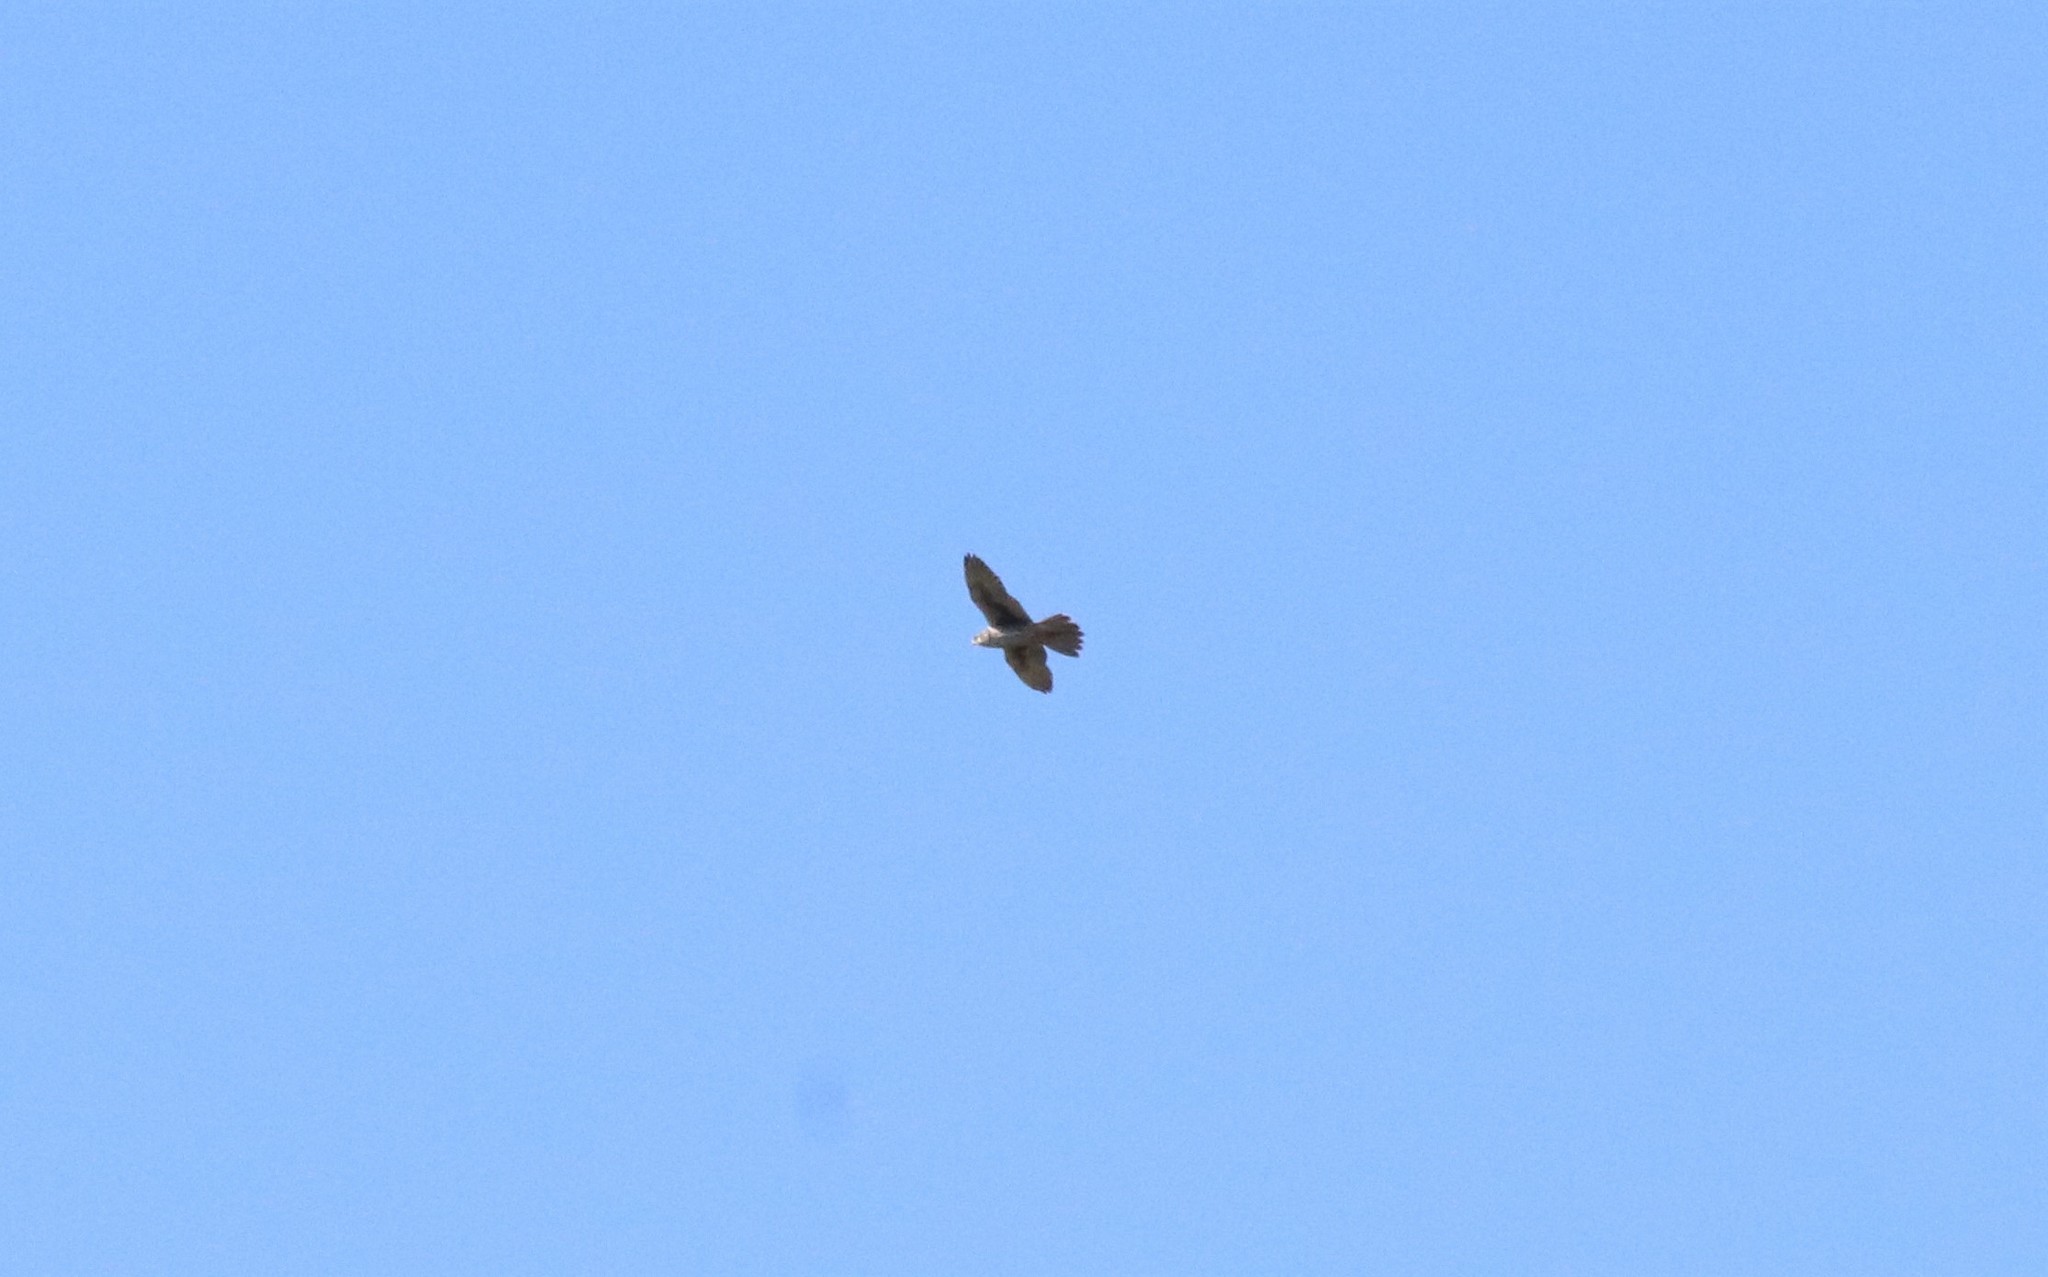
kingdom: Animalia
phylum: Chordata
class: Aves
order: Falconiformes
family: Falconidae
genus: Falco
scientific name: Falco mexicanus
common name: Prairie falcon
